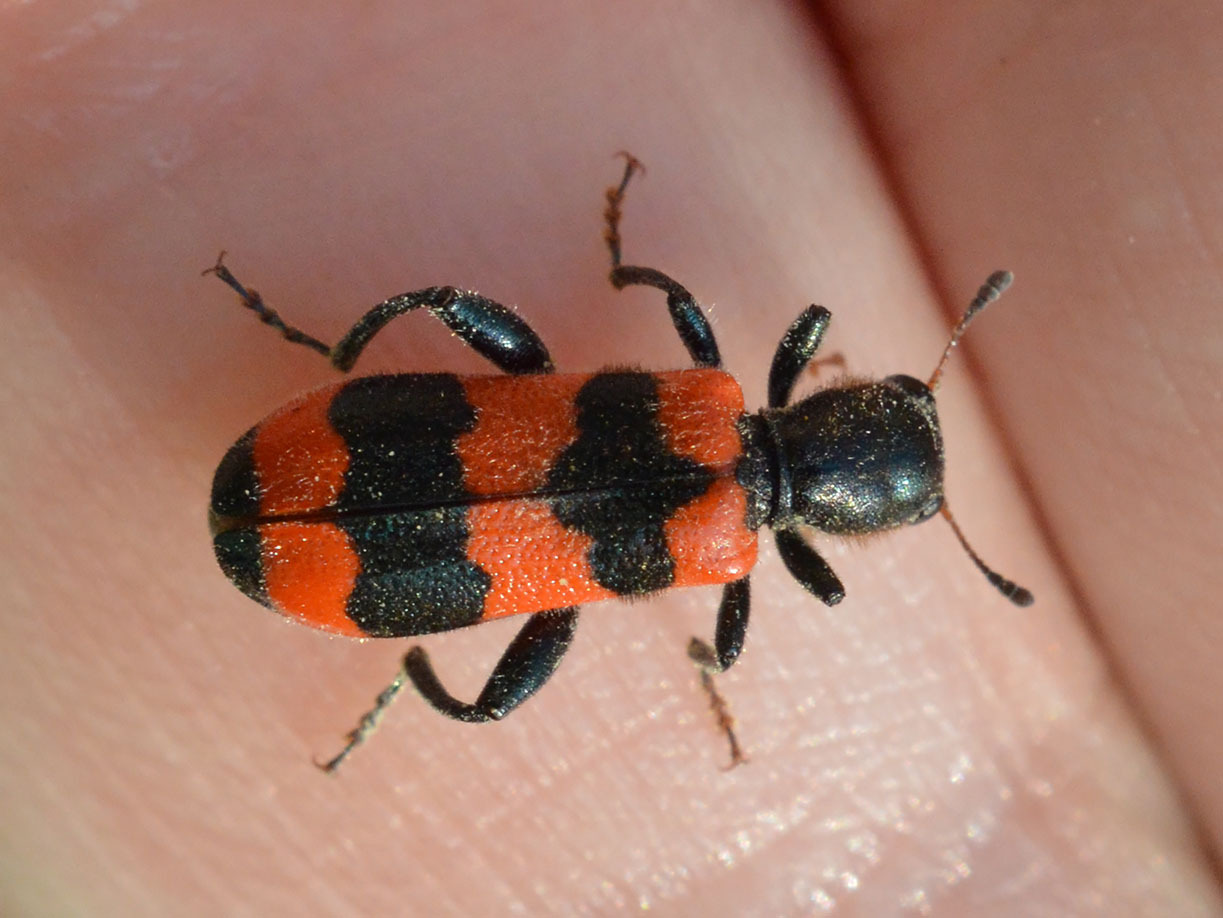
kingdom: Animalia
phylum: Arthropoda
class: Insecta
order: Coleoptera
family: Cleridae
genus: Trichodes
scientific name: Trichodes apiarius
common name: Bee-eating beetle
